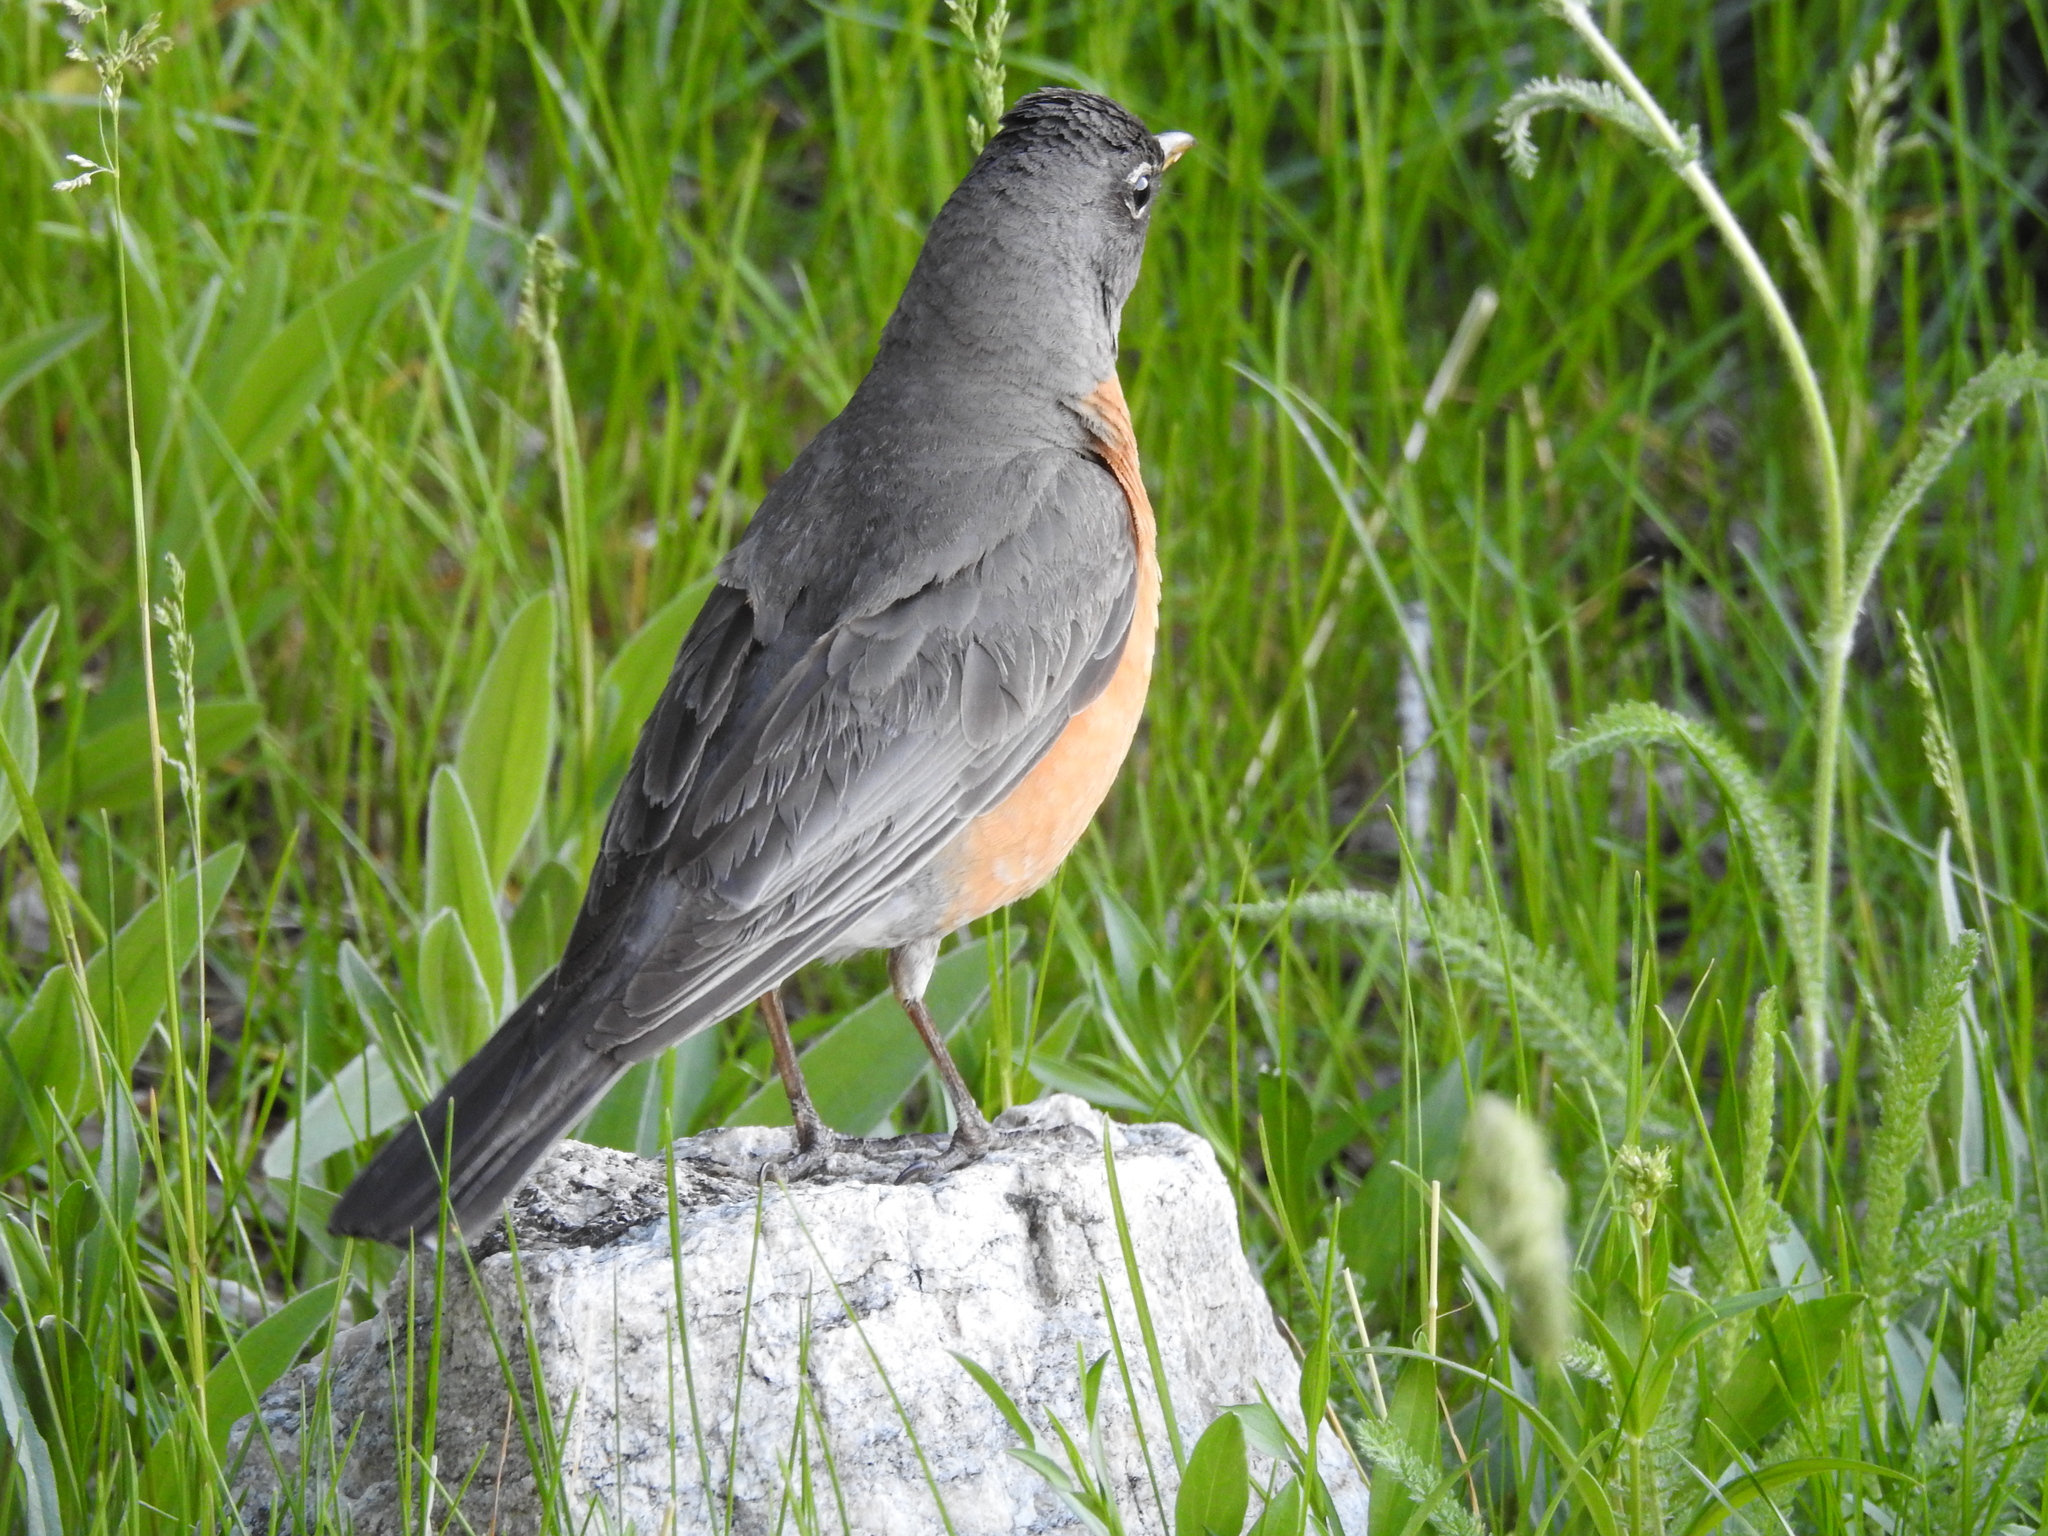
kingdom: Animalia
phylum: Chordata
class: Aves
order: Passeriformes
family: Turdidae
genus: Turdus
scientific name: Turdus migratorius
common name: American robin
